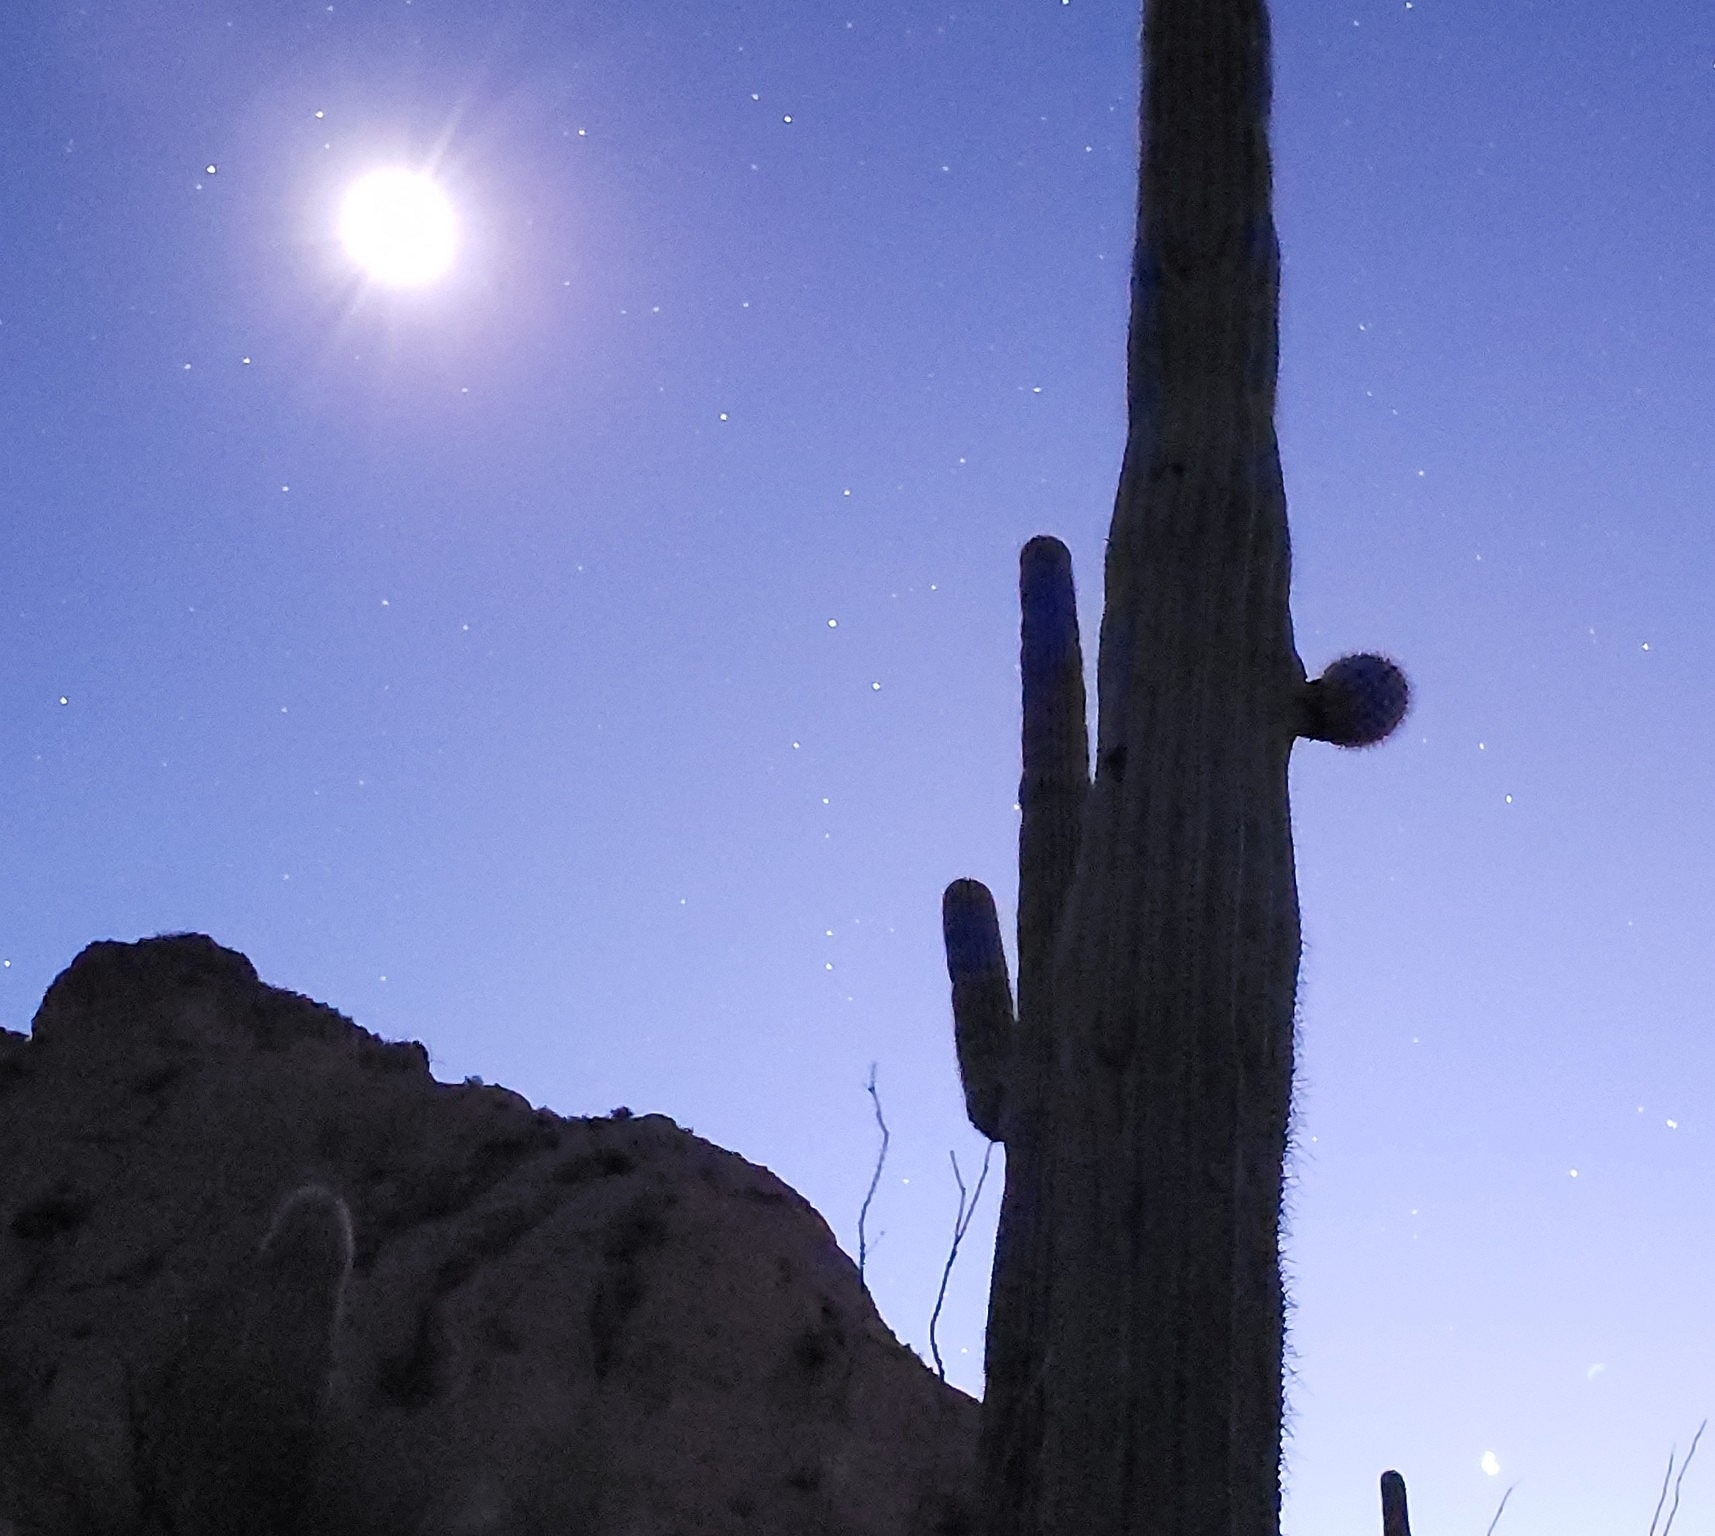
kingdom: Plantae
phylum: Tracheophyta
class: Magnoliopsida
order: Caryophyllales
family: Cactaceae
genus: Carnegiea
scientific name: Carnegiea gigantea
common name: Saguaro
